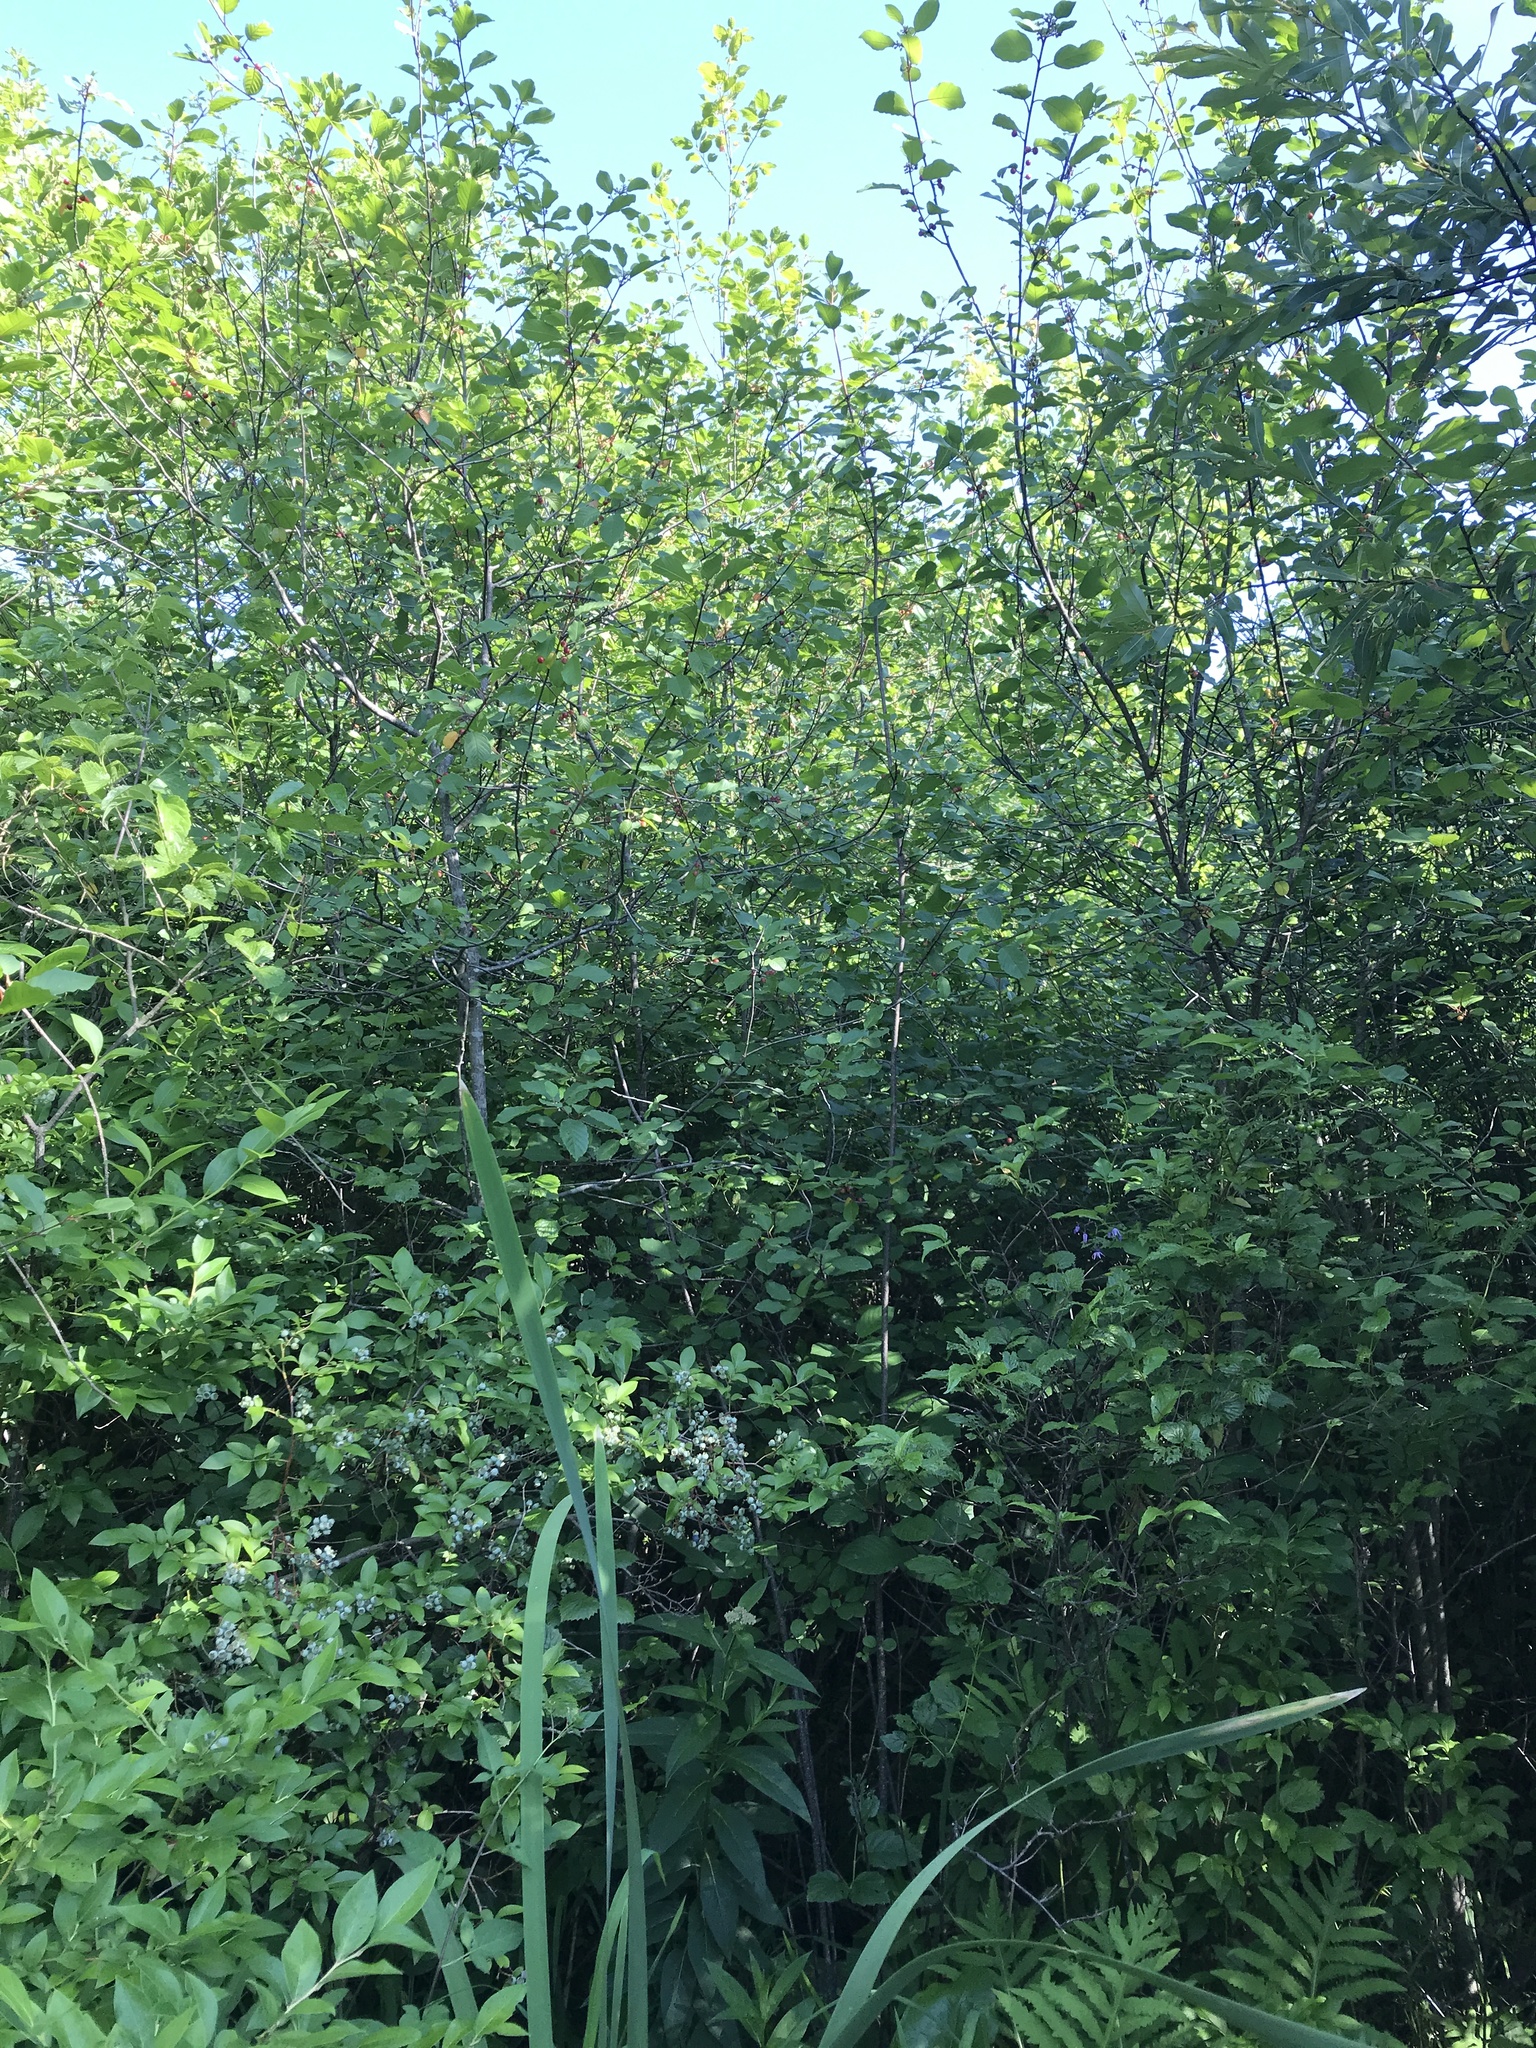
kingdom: Plantae
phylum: Tracheophyta
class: Magnoliopsida
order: Rosales
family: Rhamnaceae
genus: Frangula
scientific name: Frangula alnus
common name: Alder buckthorn
